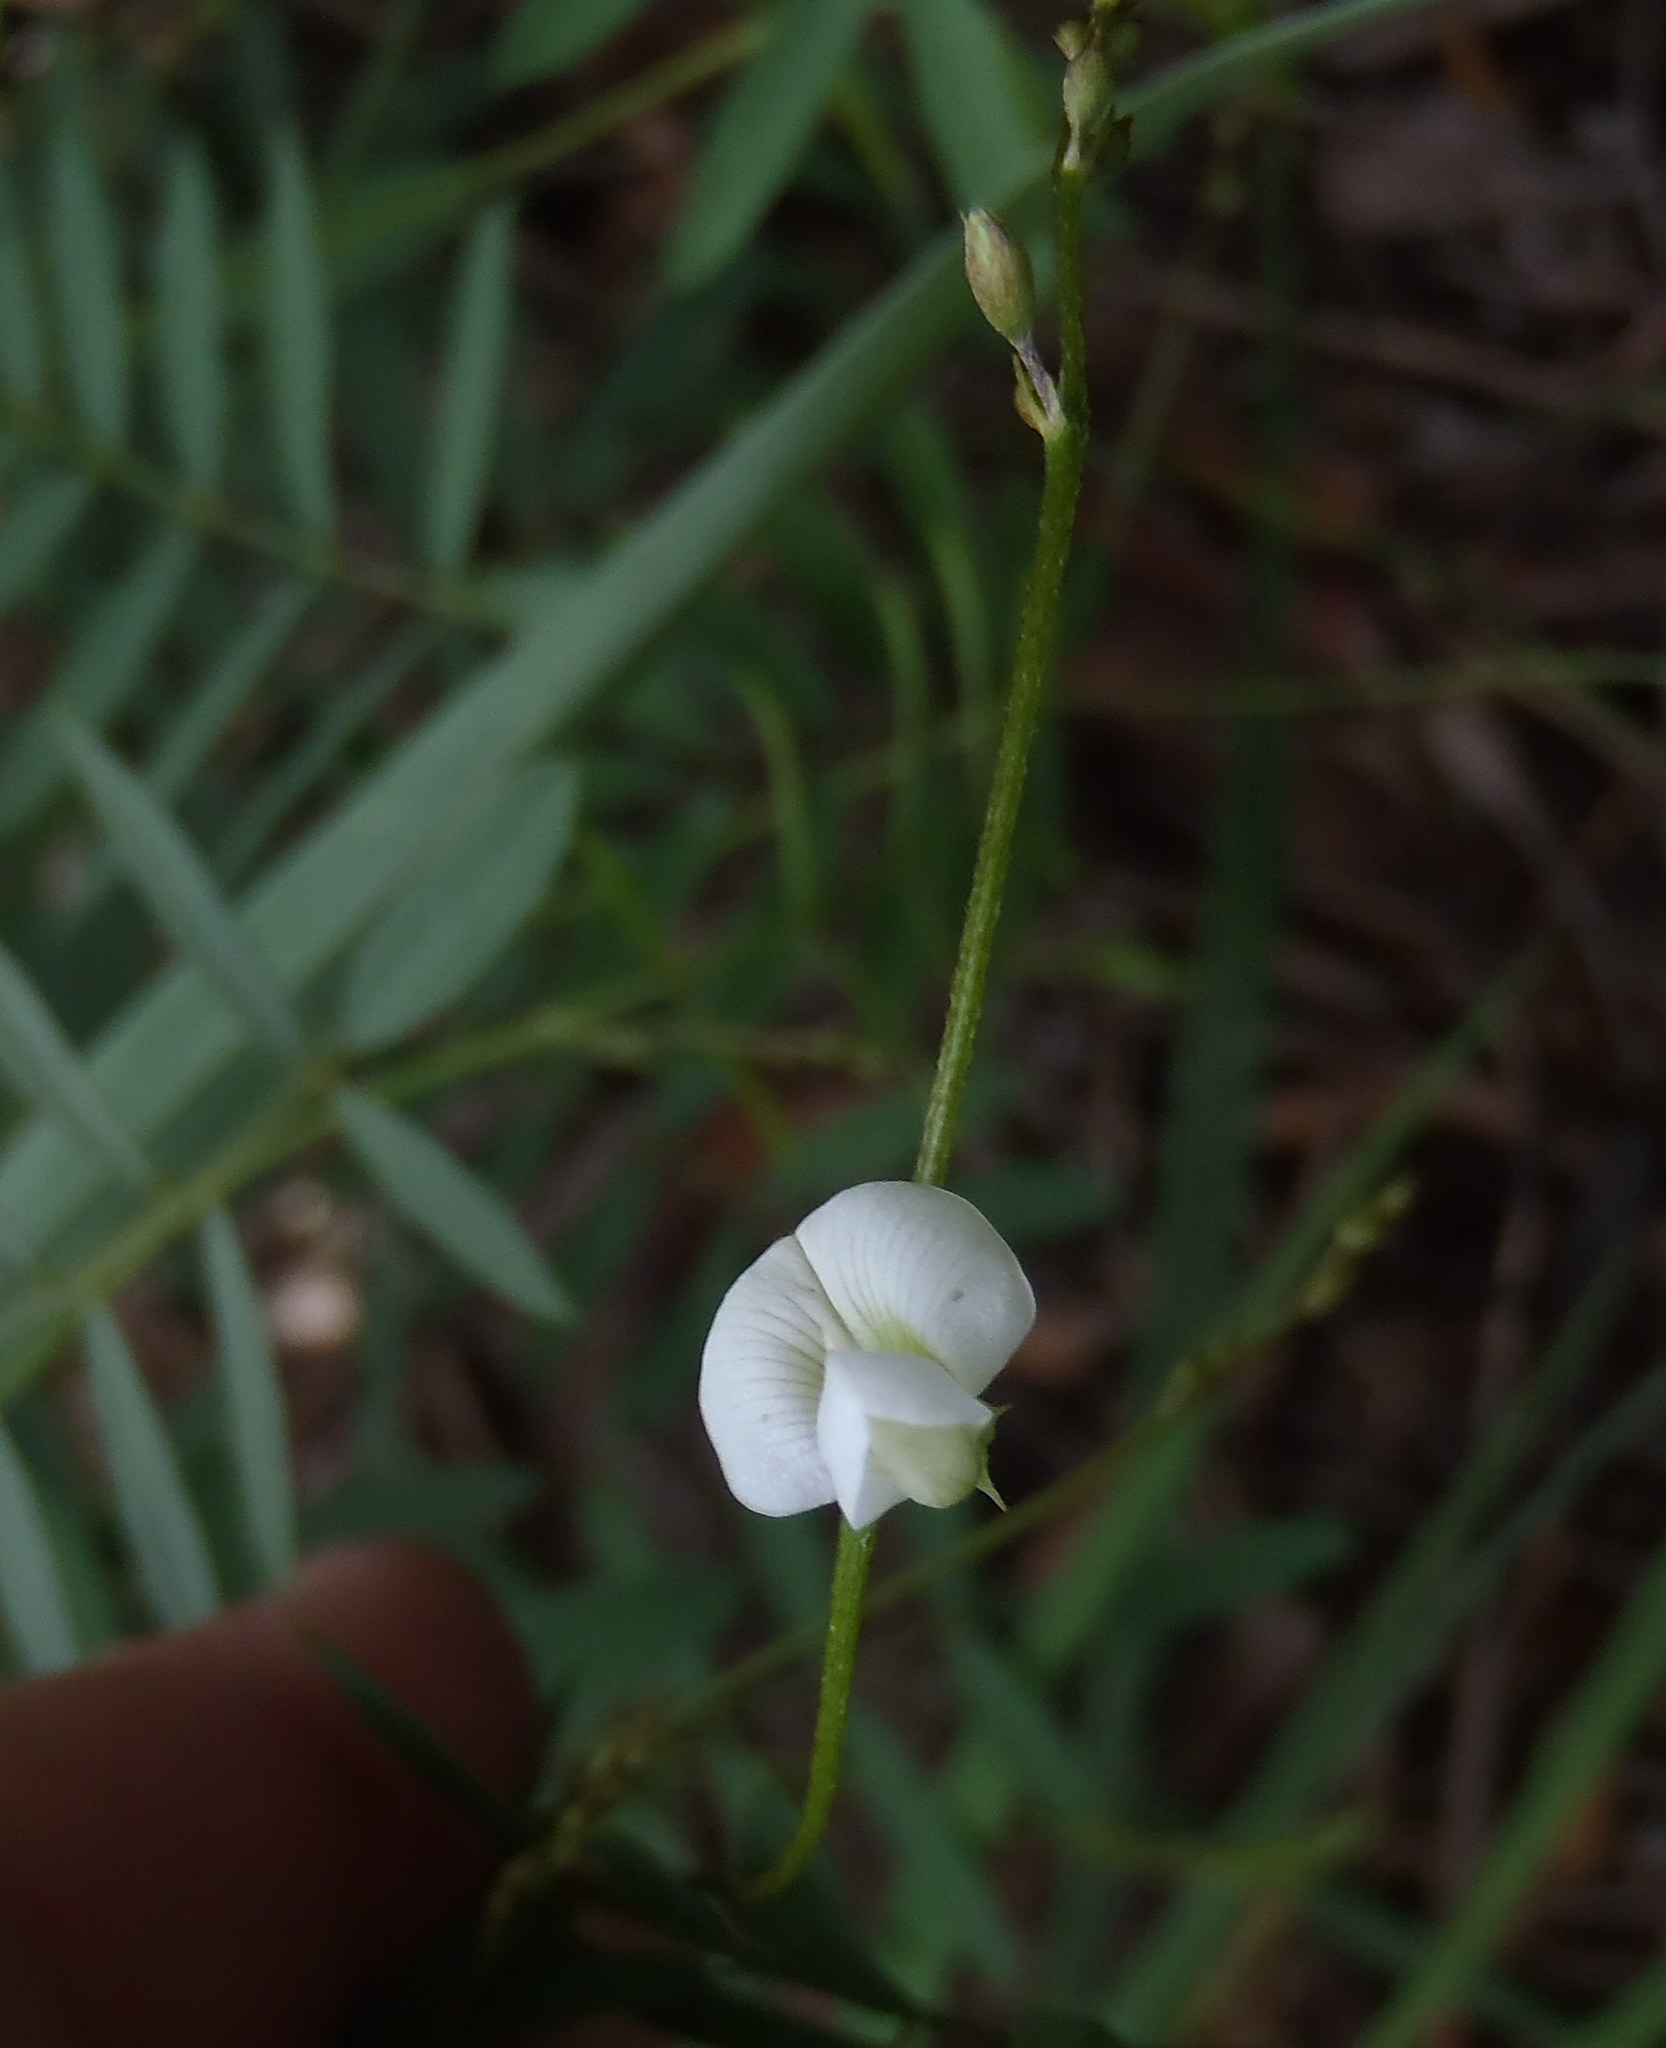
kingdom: Plantae
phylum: Tracheophyta
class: Magnoliopsida
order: Fabales
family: Fabaceae
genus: Tephrosia
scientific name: Tephrosia multijuga
